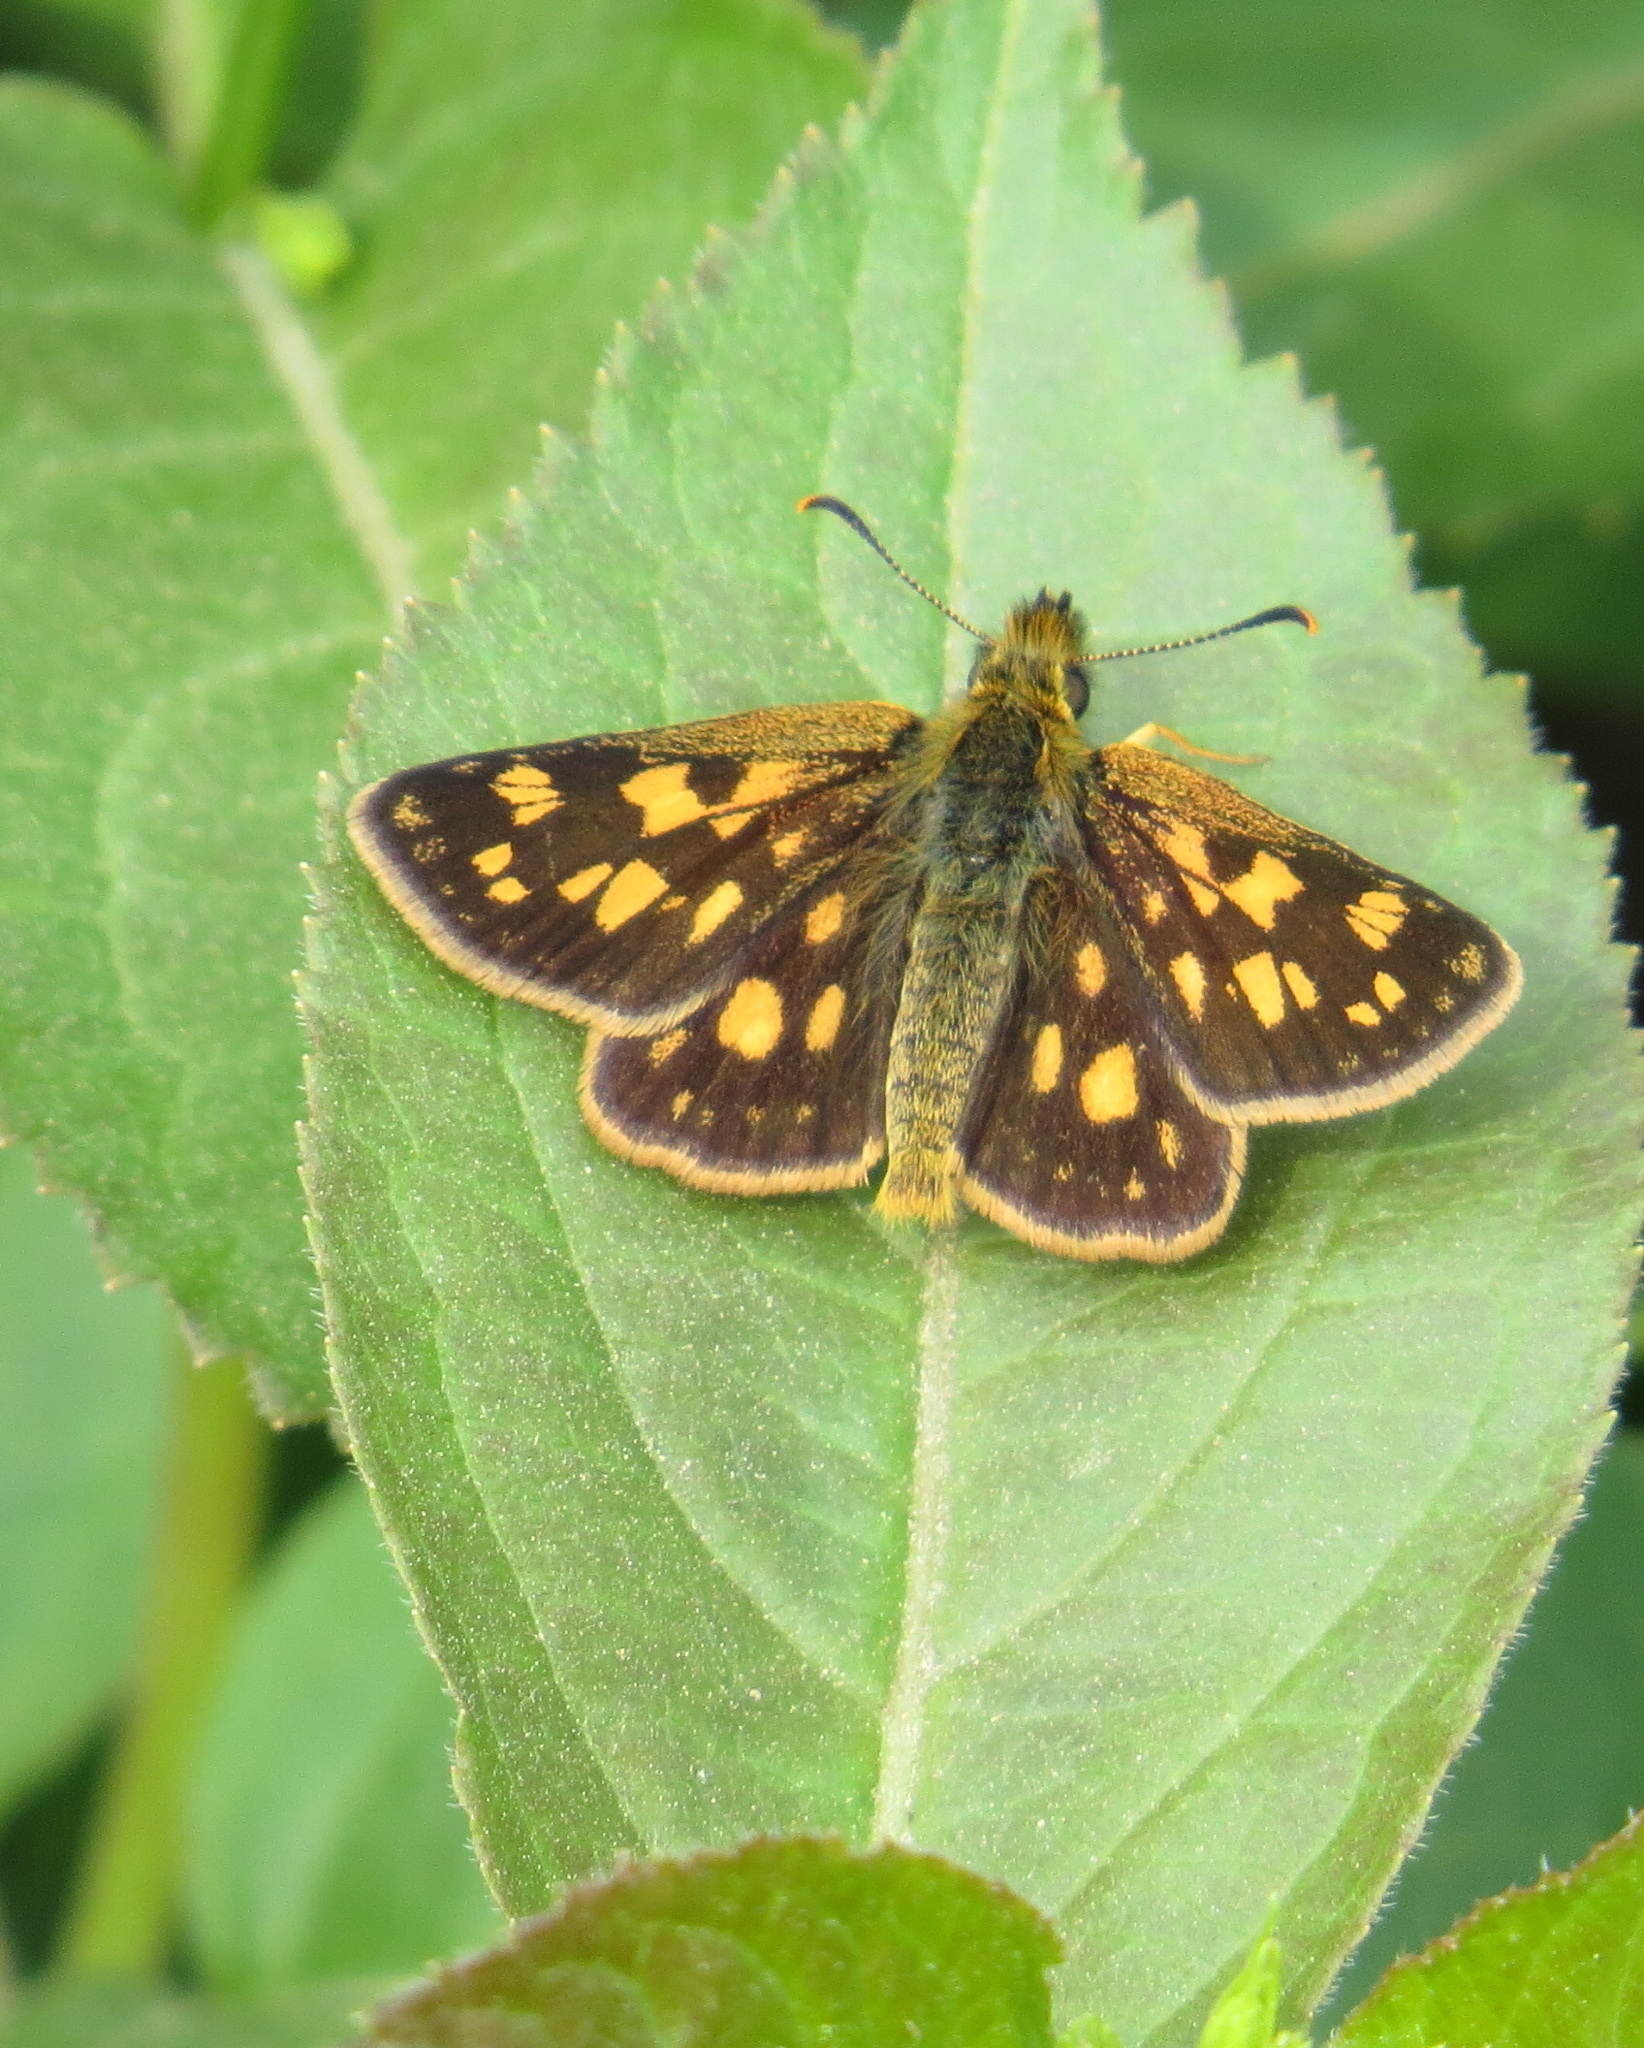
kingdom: Animalia
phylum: Arthropoda
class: Insecta
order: Lepidoptera
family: Hesperiidae
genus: Carterocephalus
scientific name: Carterocephalus mandan
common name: Arctic skipperling
